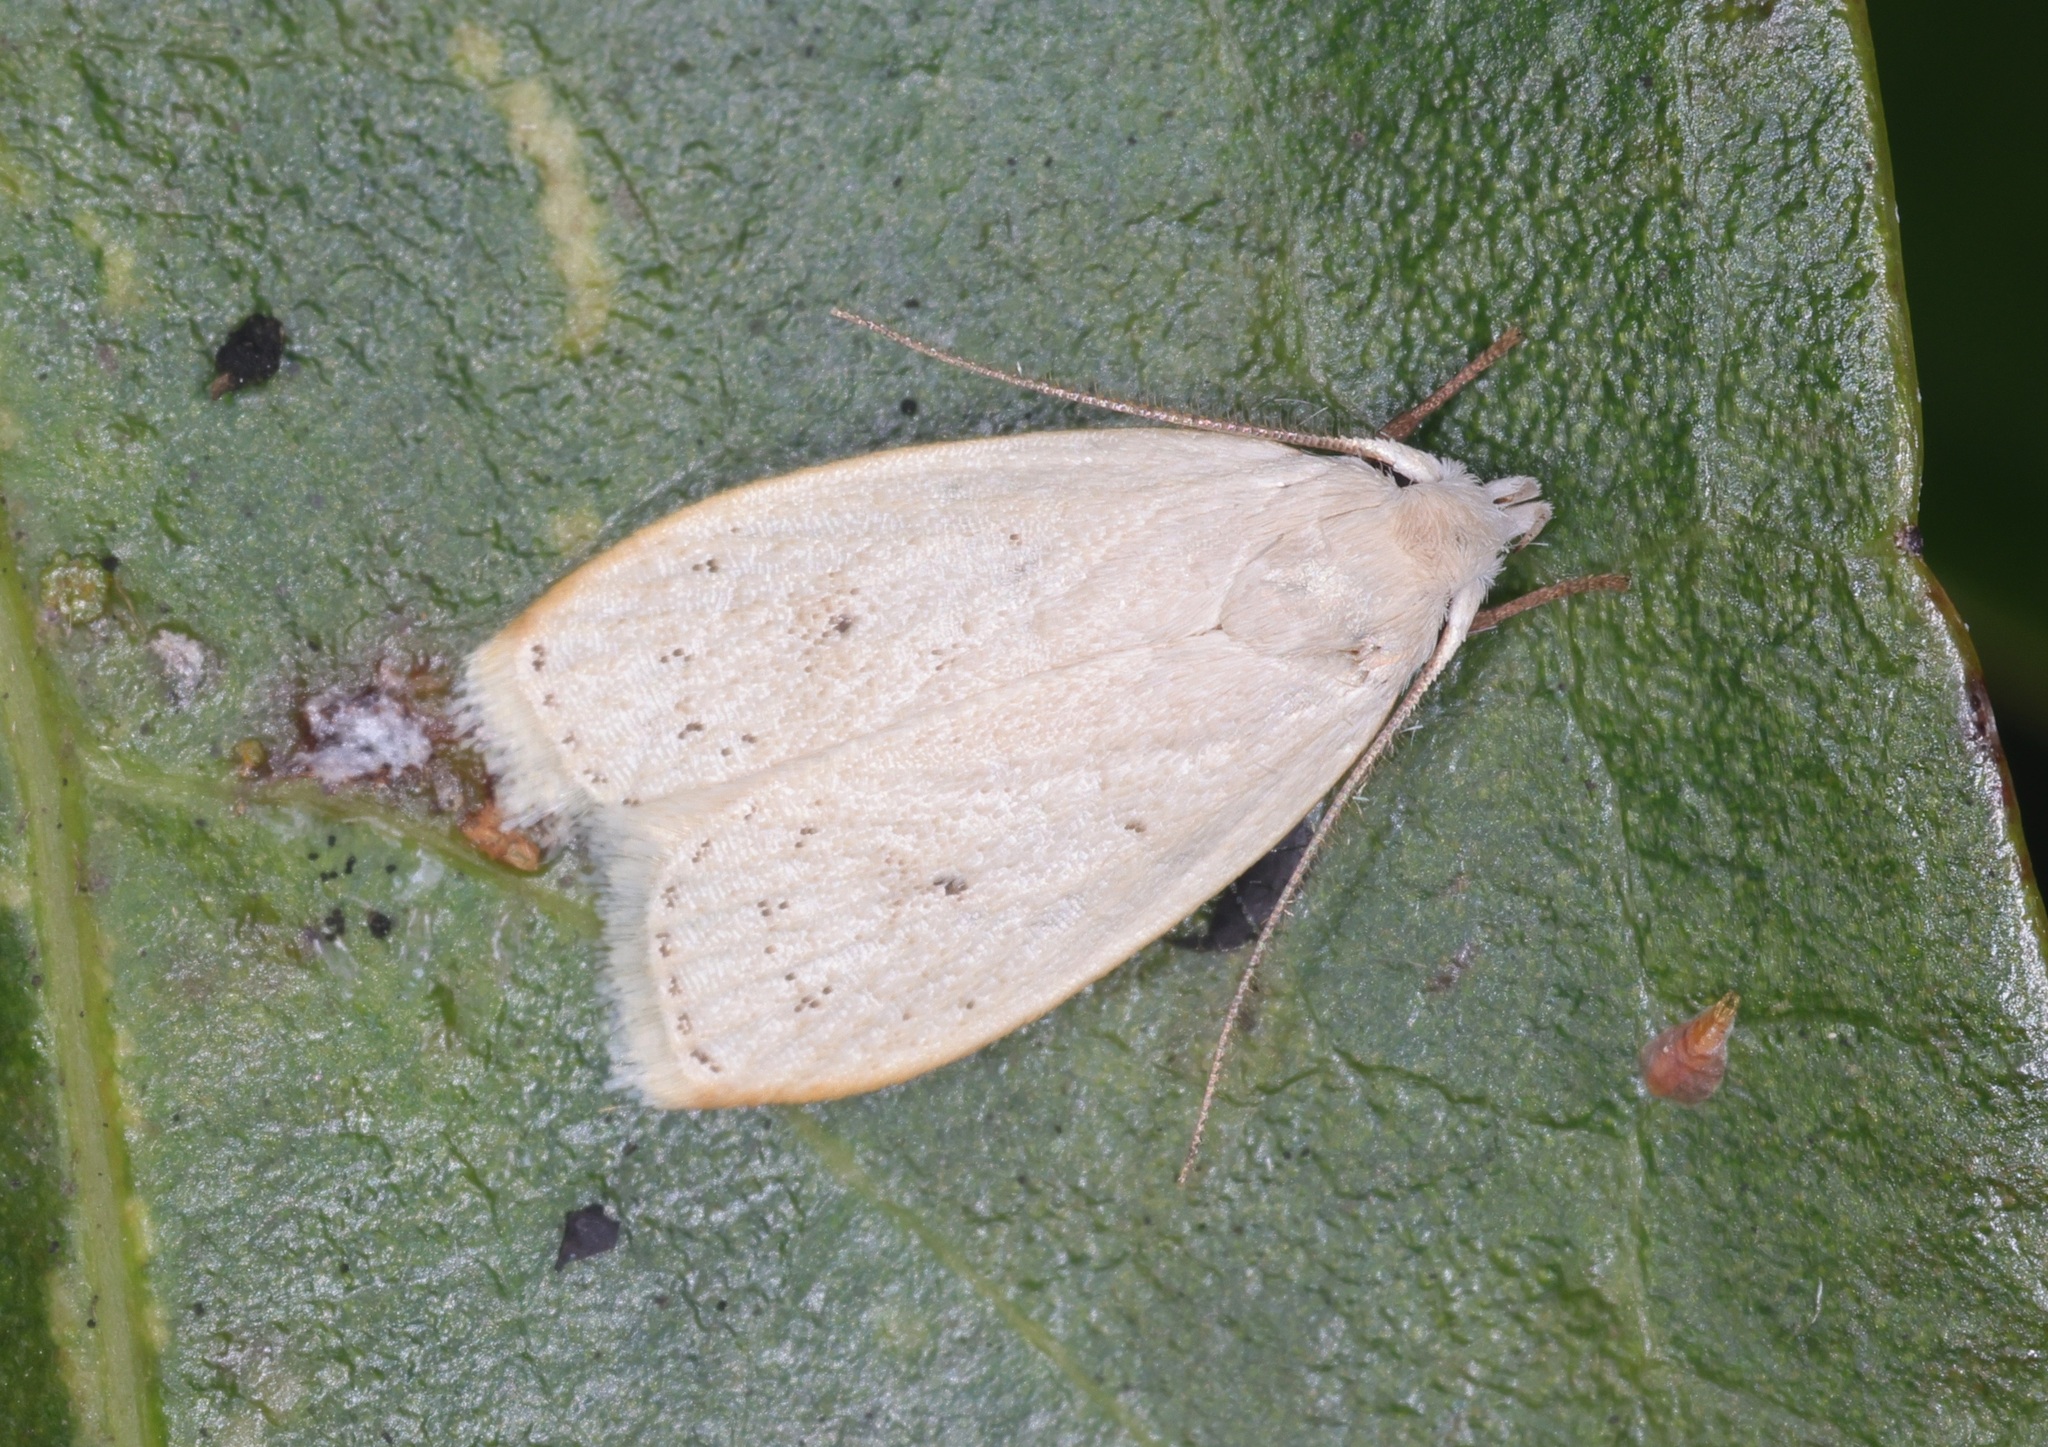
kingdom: Animalia
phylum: Arthropoda
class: Insecta
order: Lepidoptera
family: Peleopodidae
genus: Odites
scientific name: Odites
